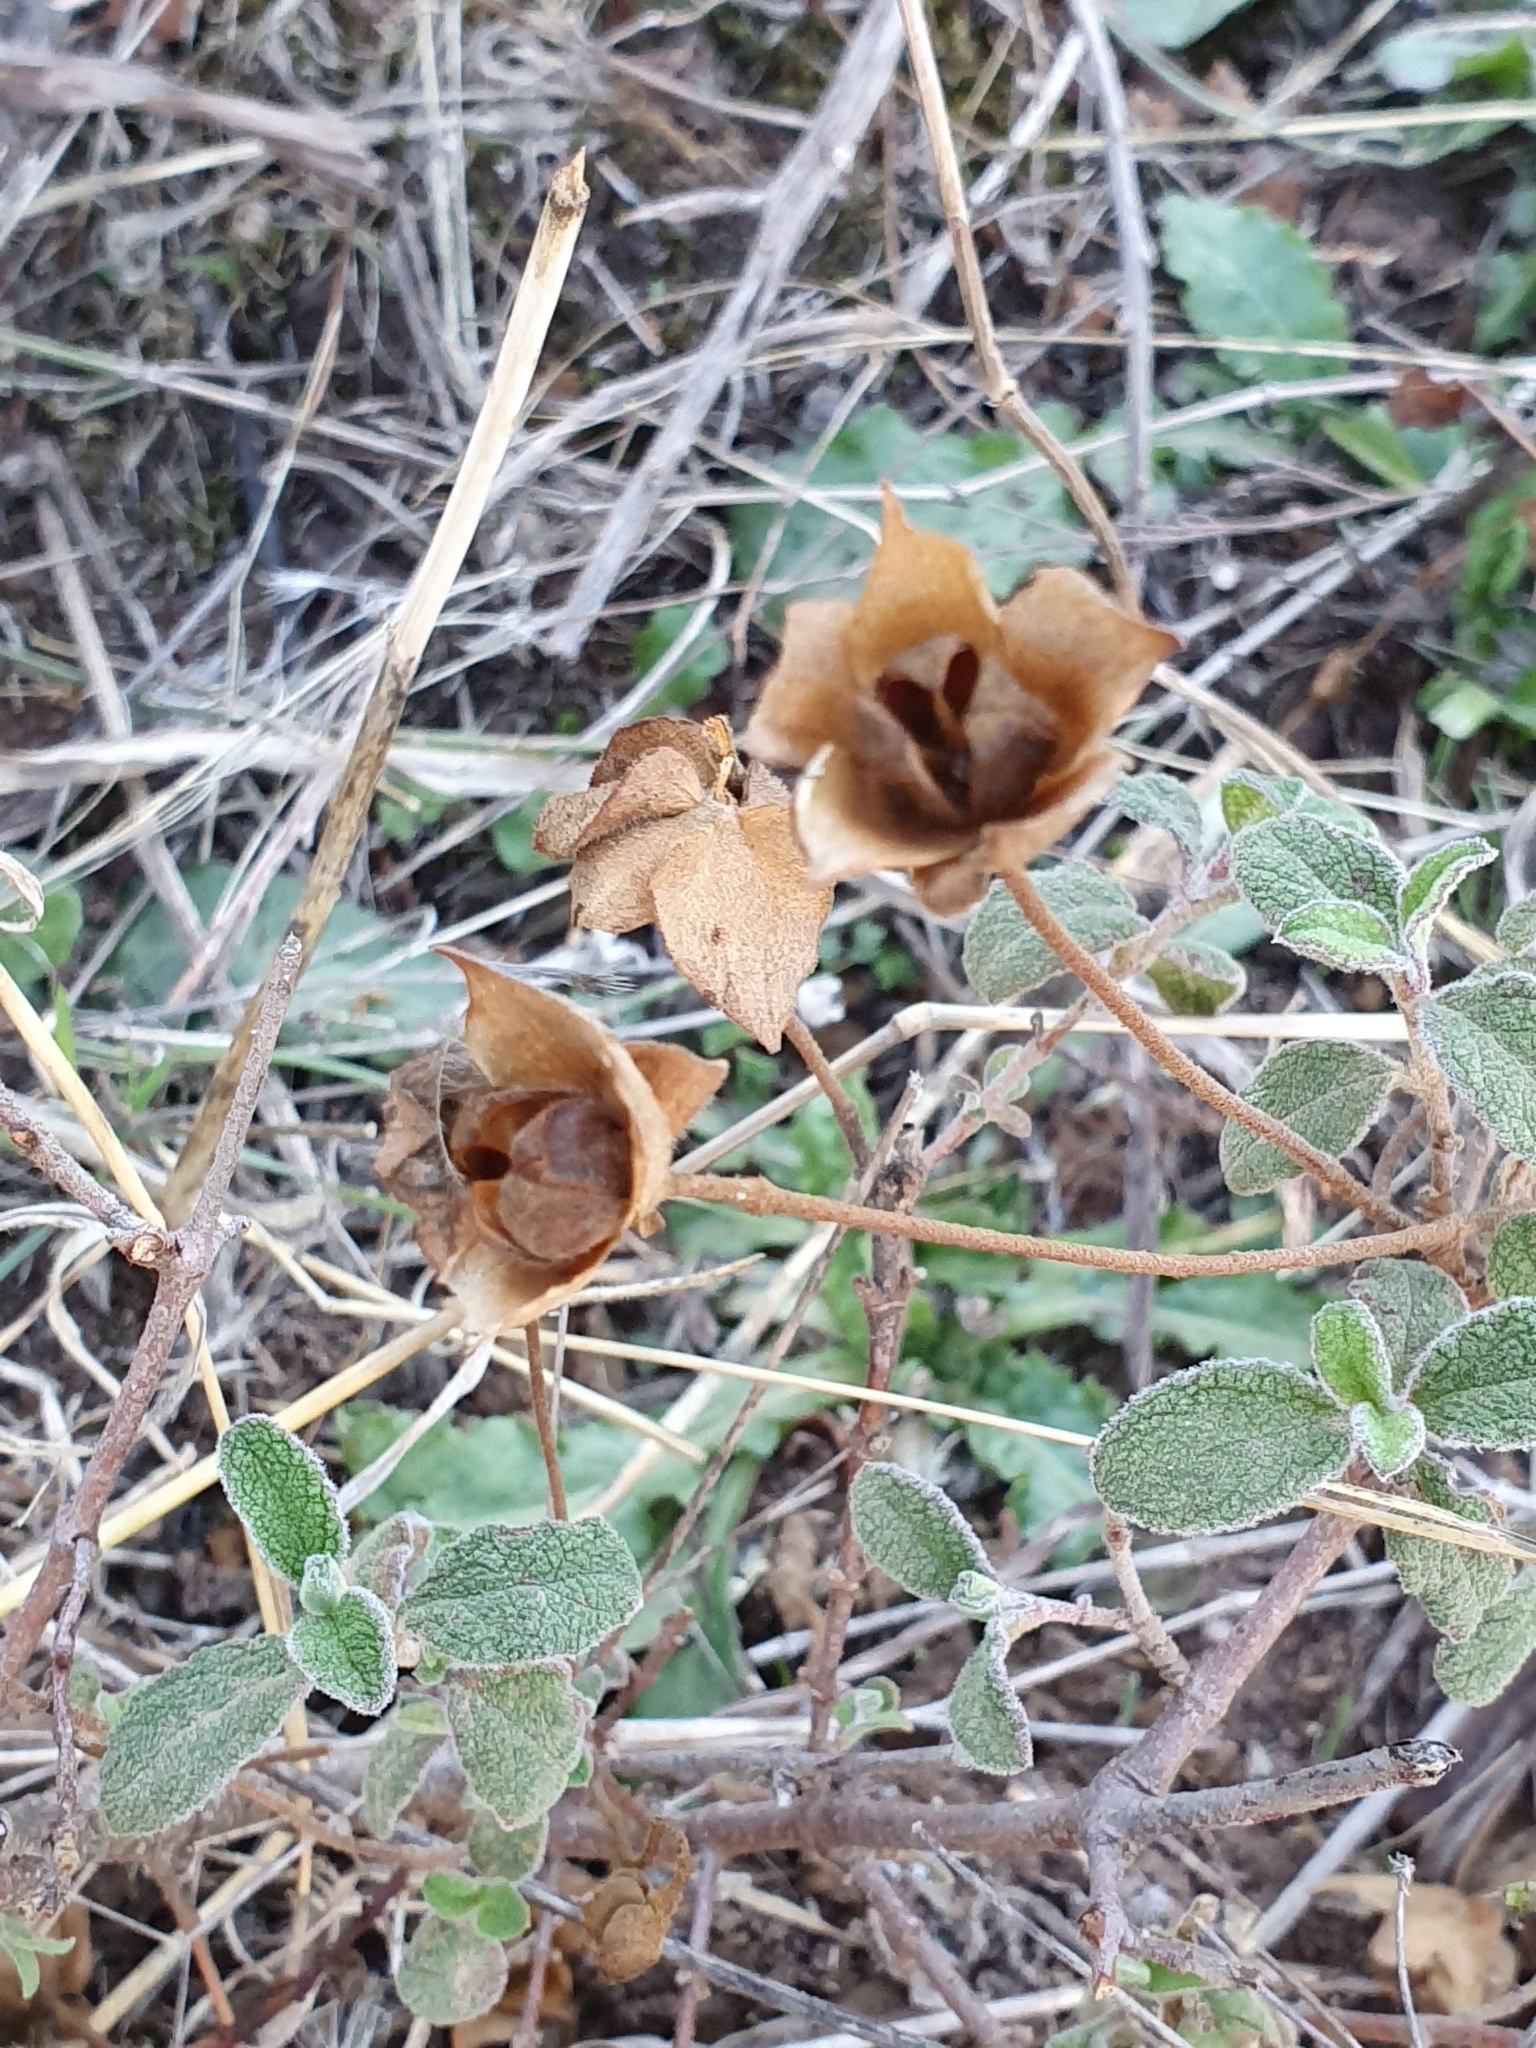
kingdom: Plantae
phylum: Tracheophyta
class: Magnoliopsida
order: Malvales
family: Cistaceae
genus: Cistus
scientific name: Cistus salviifolius
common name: Salvia cistus
